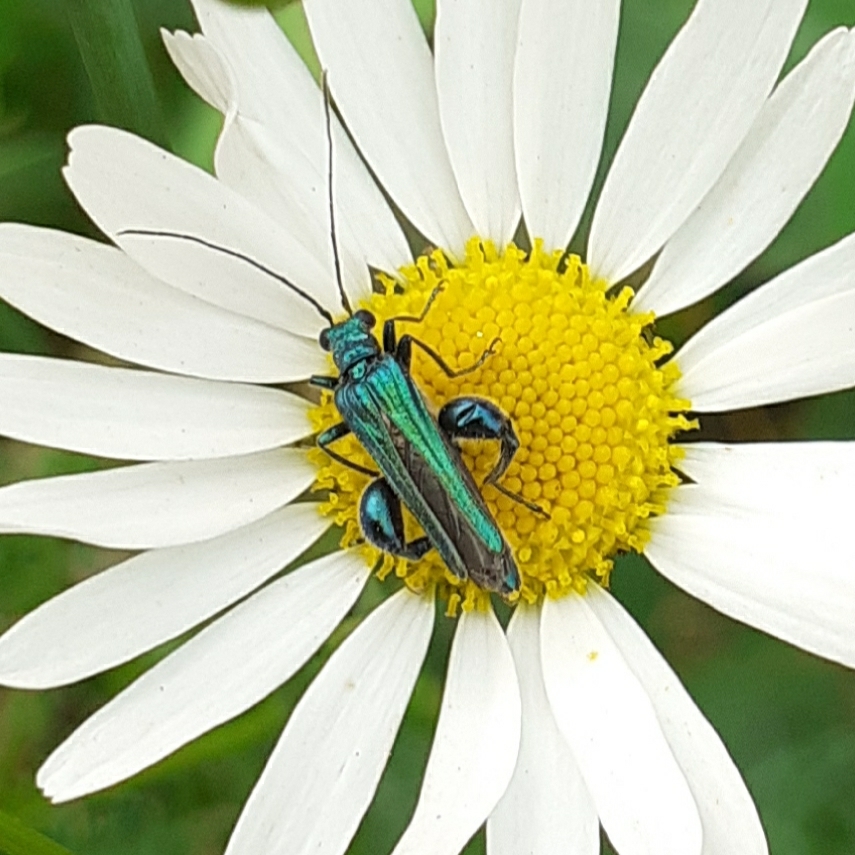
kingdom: Animalia
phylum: Arthropoda
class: Insecta
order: Coleoptera
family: Oedemeridae
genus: Oedemera
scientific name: Oedemera nobilis
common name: Swollen-thighed beetle
